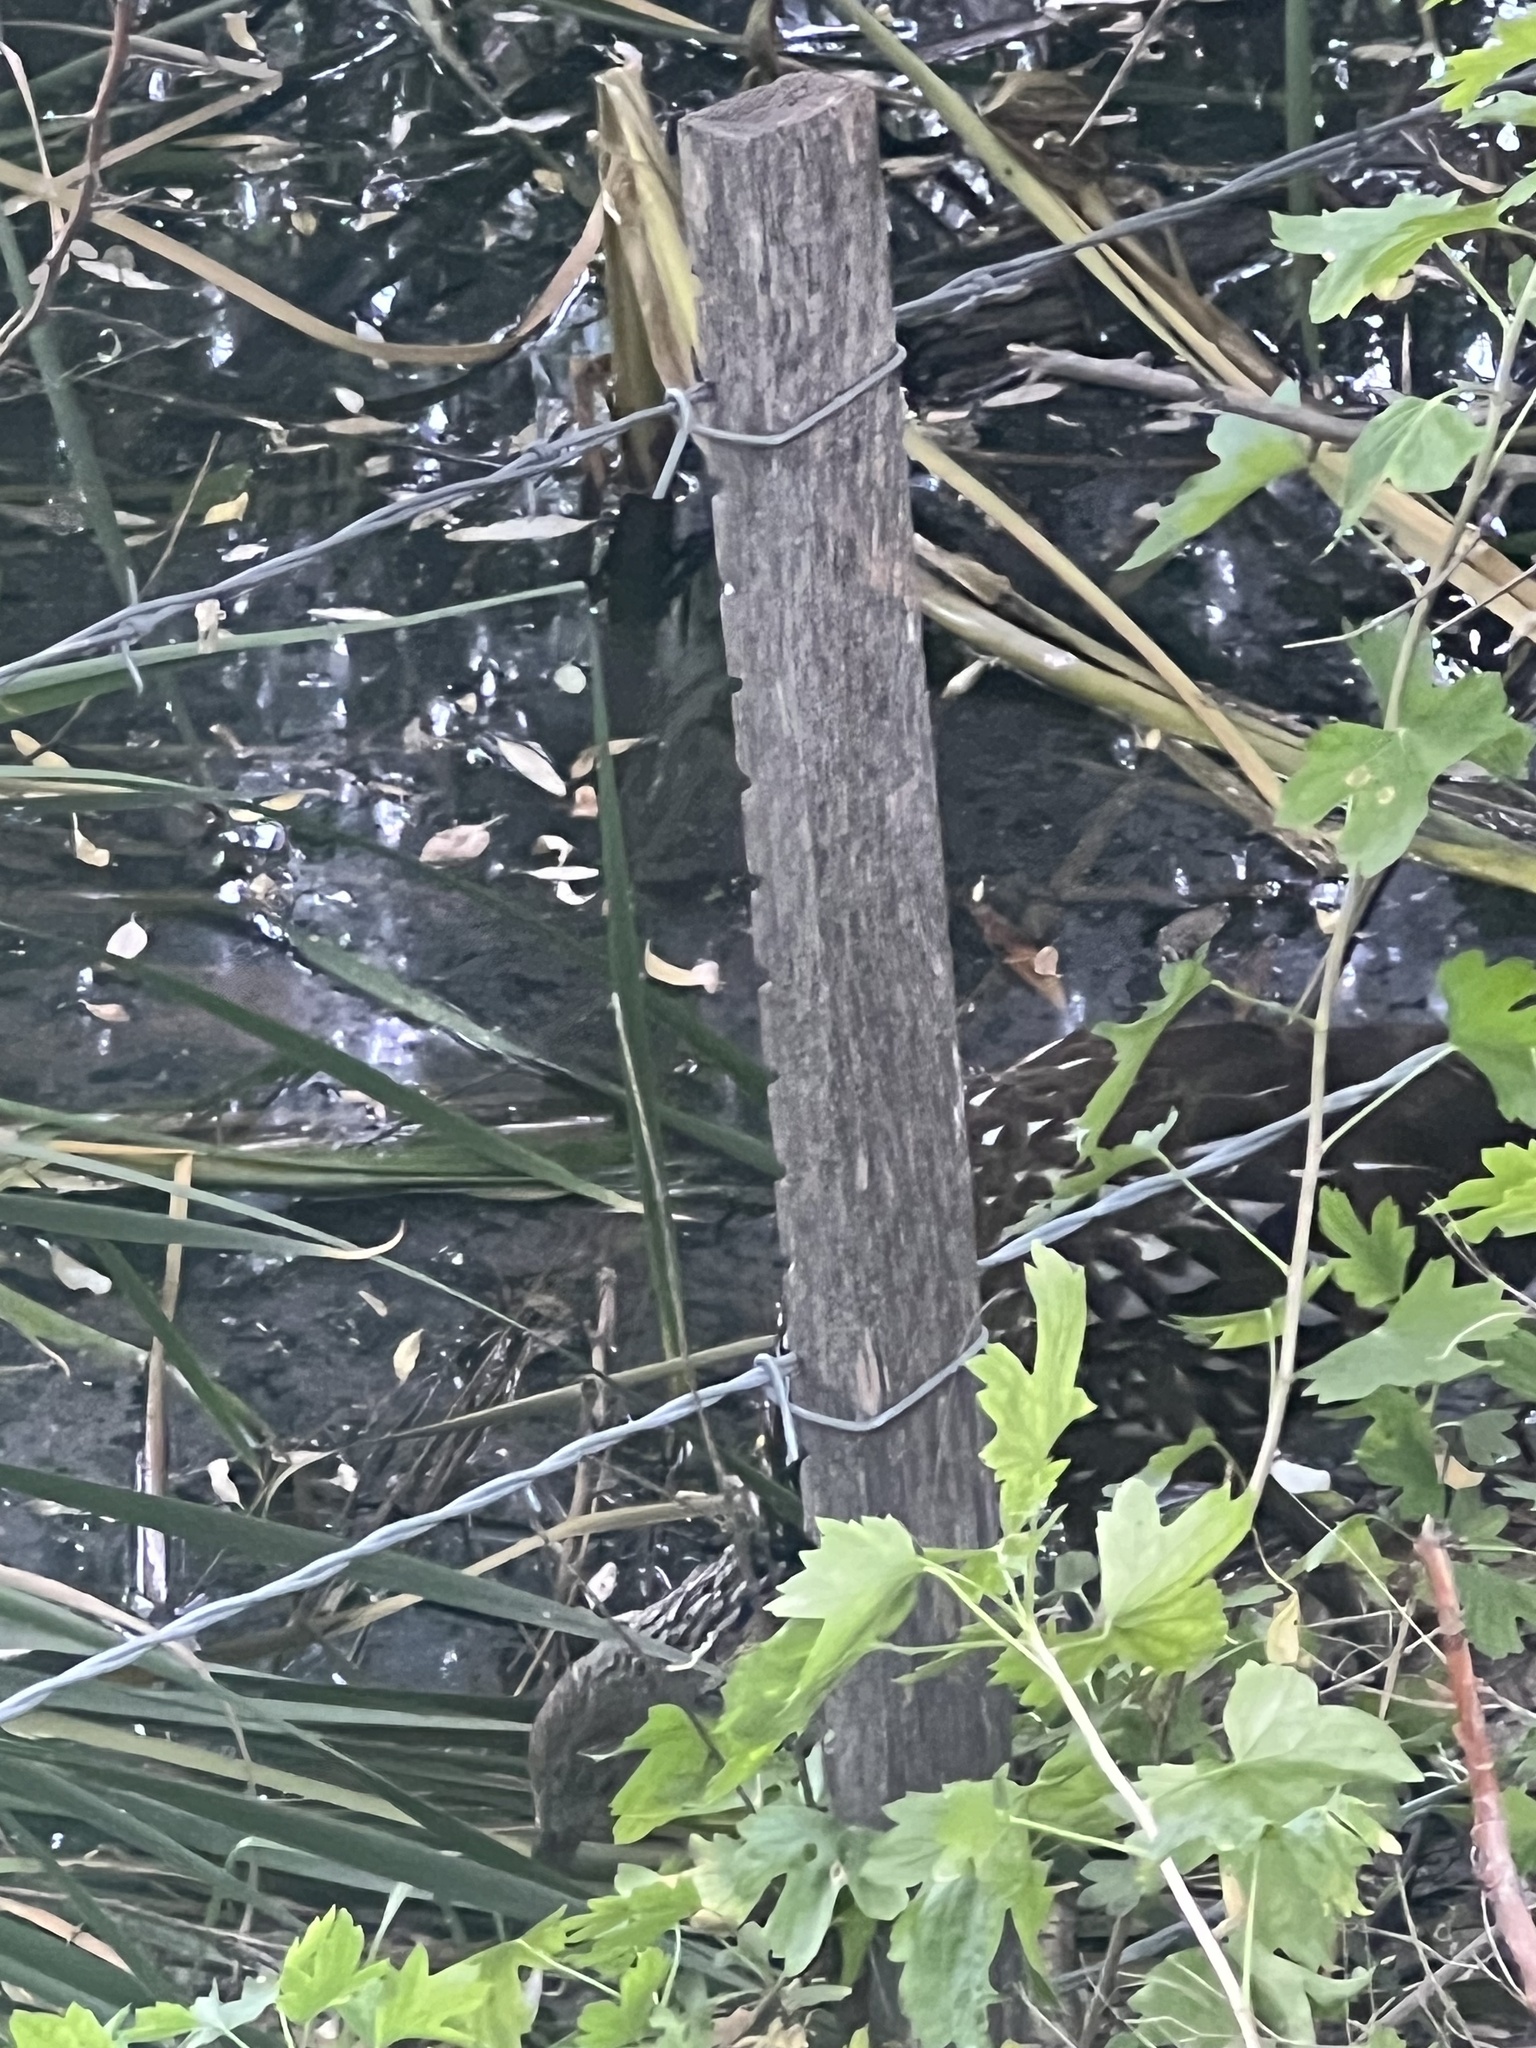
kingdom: Animalia
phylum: Chordata
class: Aves
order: Gruiformes
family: Aramidae
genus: Aramus
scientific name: Aramus guarauna
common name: Limpkin
